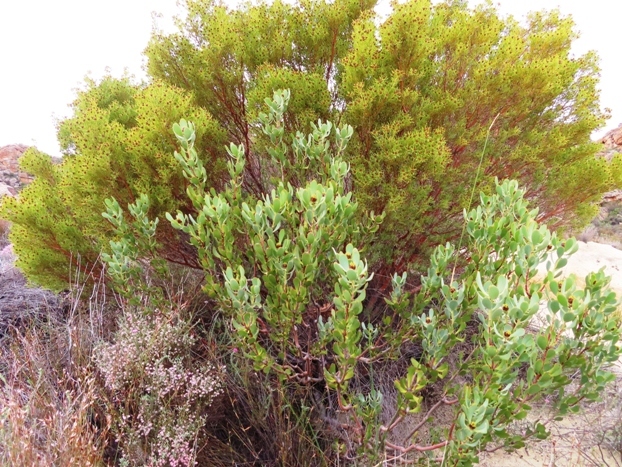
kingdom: Plantae
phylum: Tracheophyta
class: Magnoliopsida
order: Proteales
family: Proteaceae
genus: Leucadendron
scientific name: Leucadendron loranthifolium
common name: Green-flower sunbush
